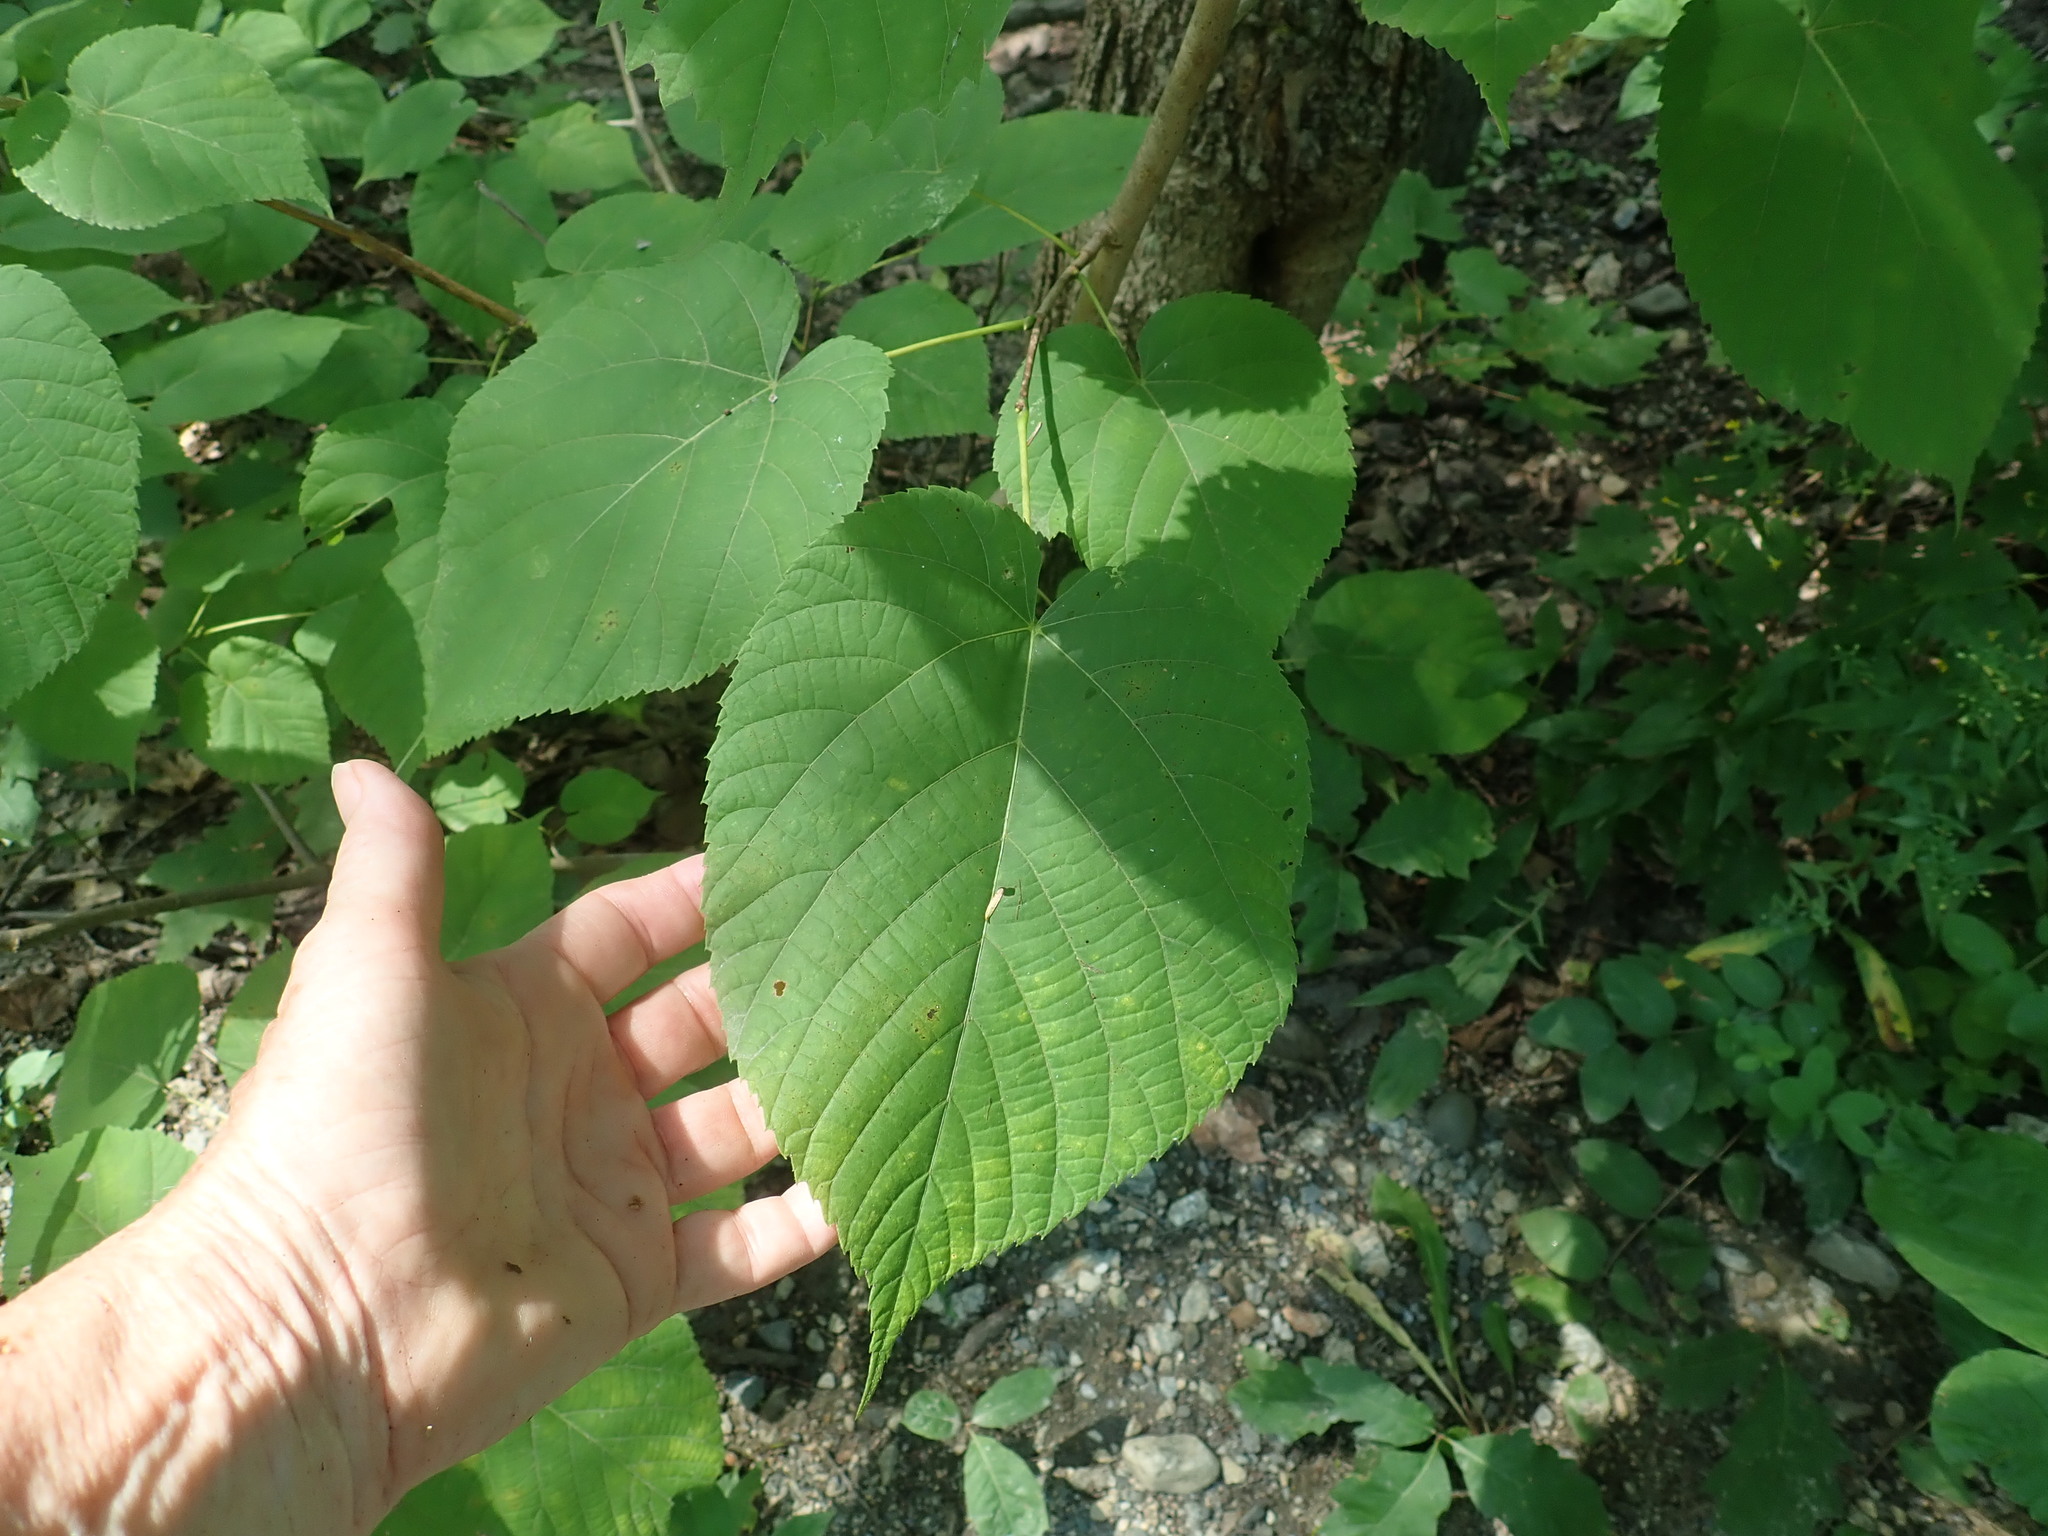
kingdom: Plantae
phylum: Tracheophyta
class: Magnoliopsida
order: Malvales
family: Malvaceae
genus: Tilia
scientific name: Tilia americana
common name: Basswood
